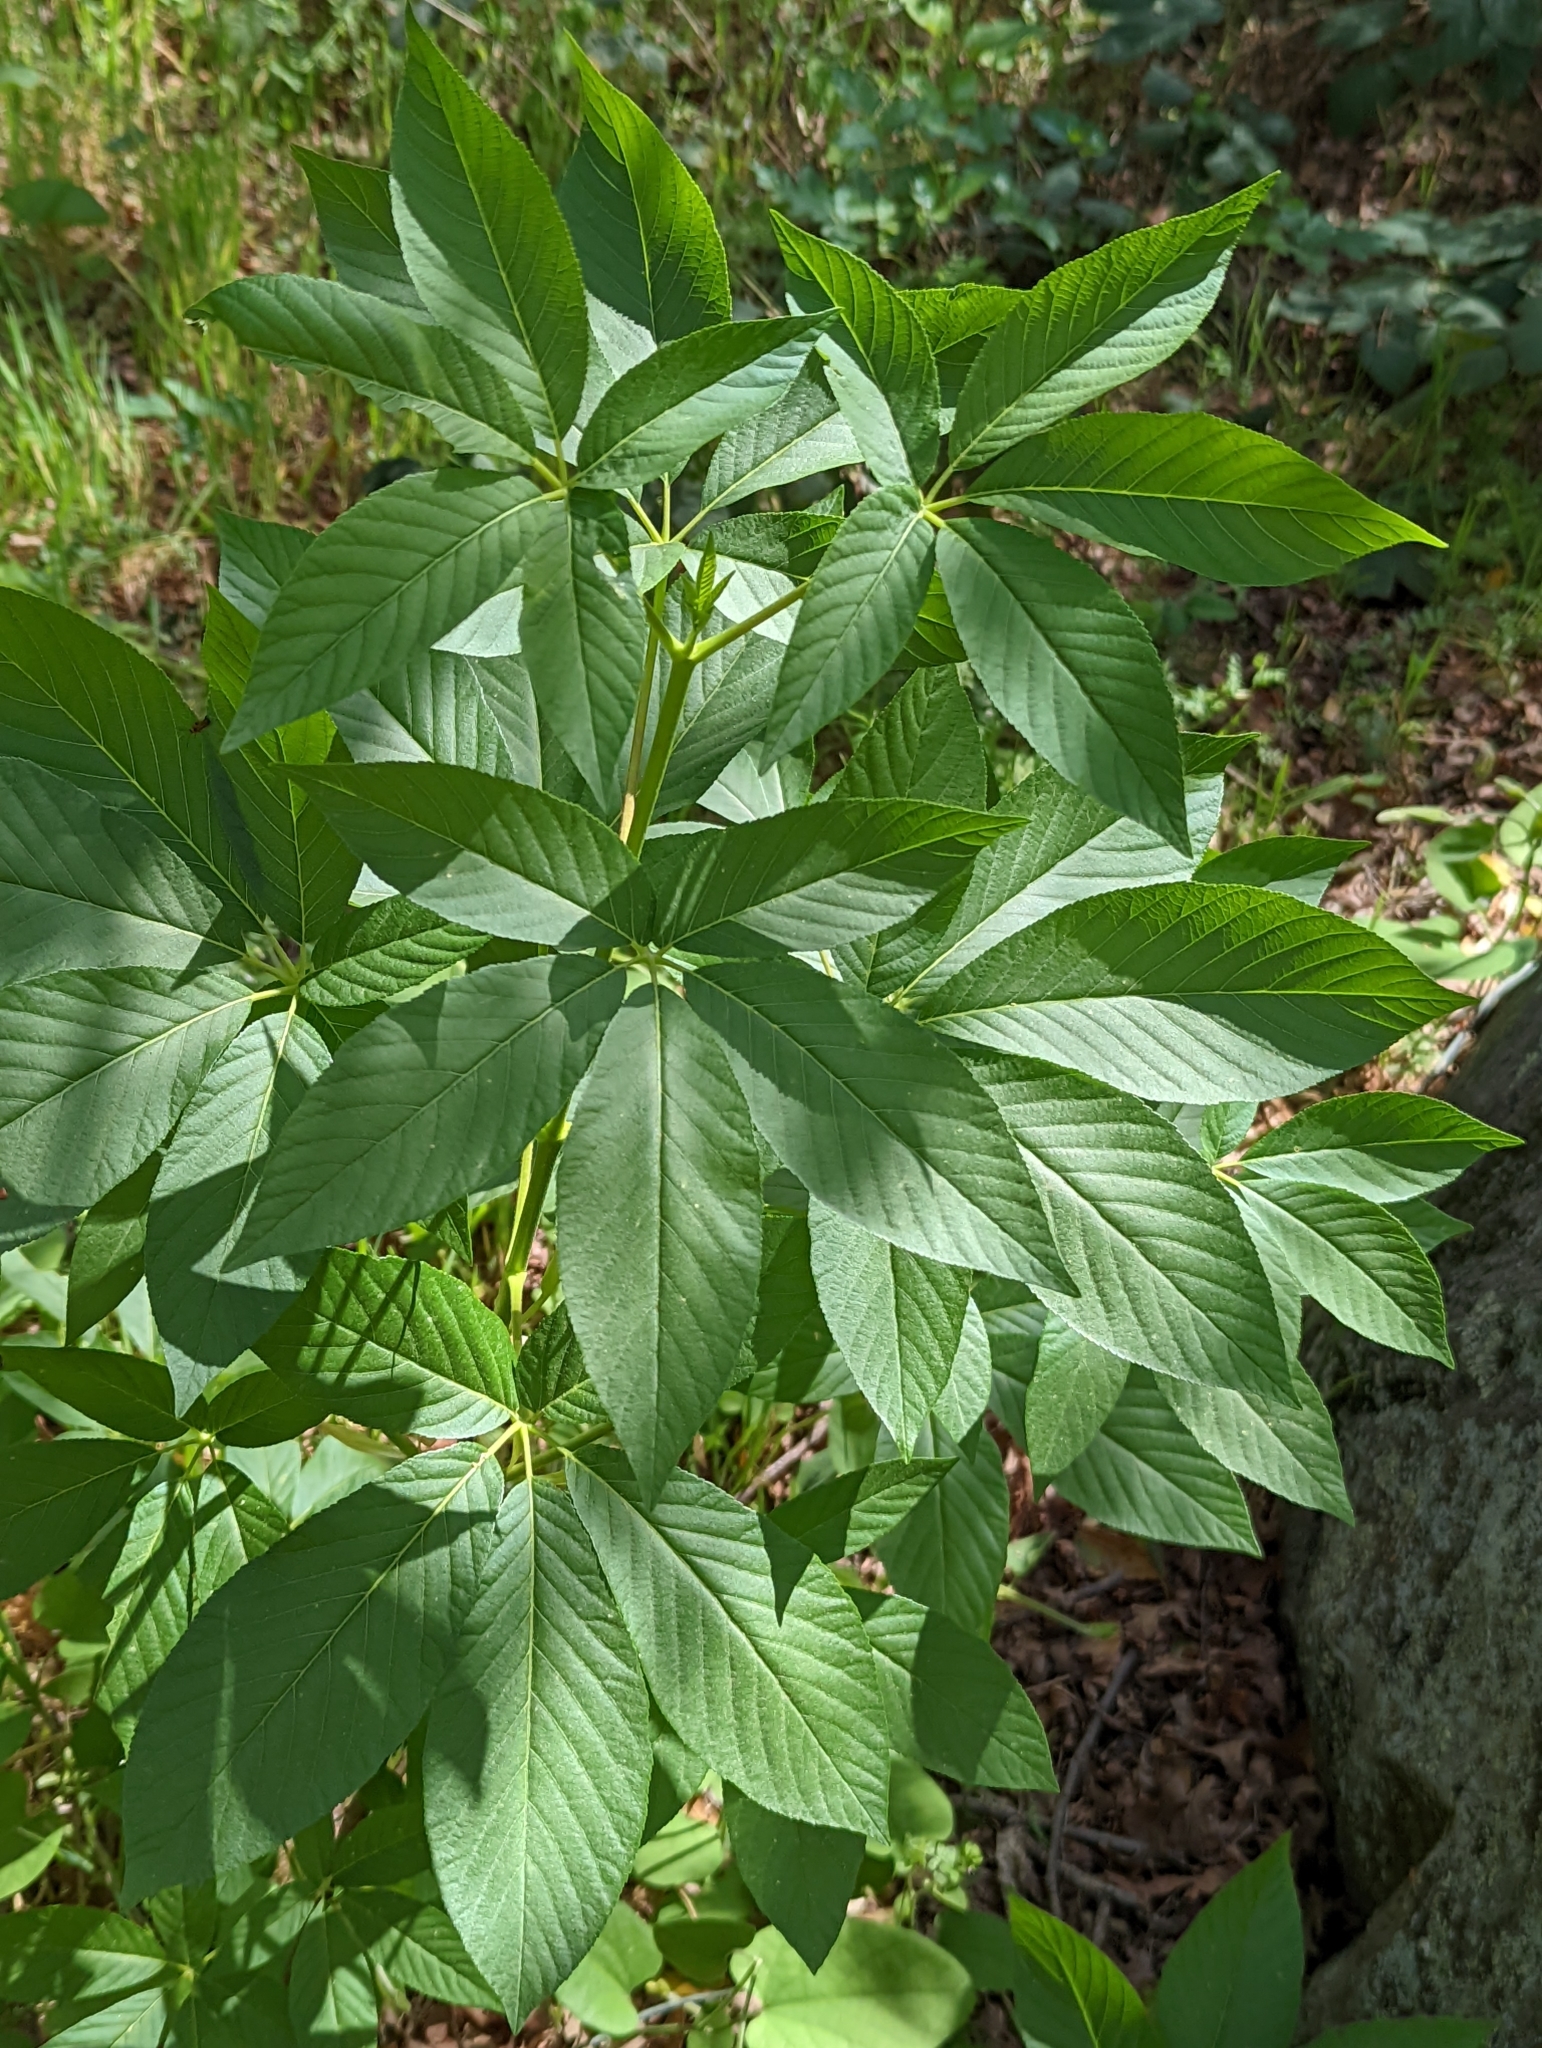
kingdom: Plantae
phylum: Tracheophyta
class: Magnoliopsida
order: Sapindales
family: Sapindaceae
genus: Aesculus
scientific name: Aesculus californica
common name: California buckeye
